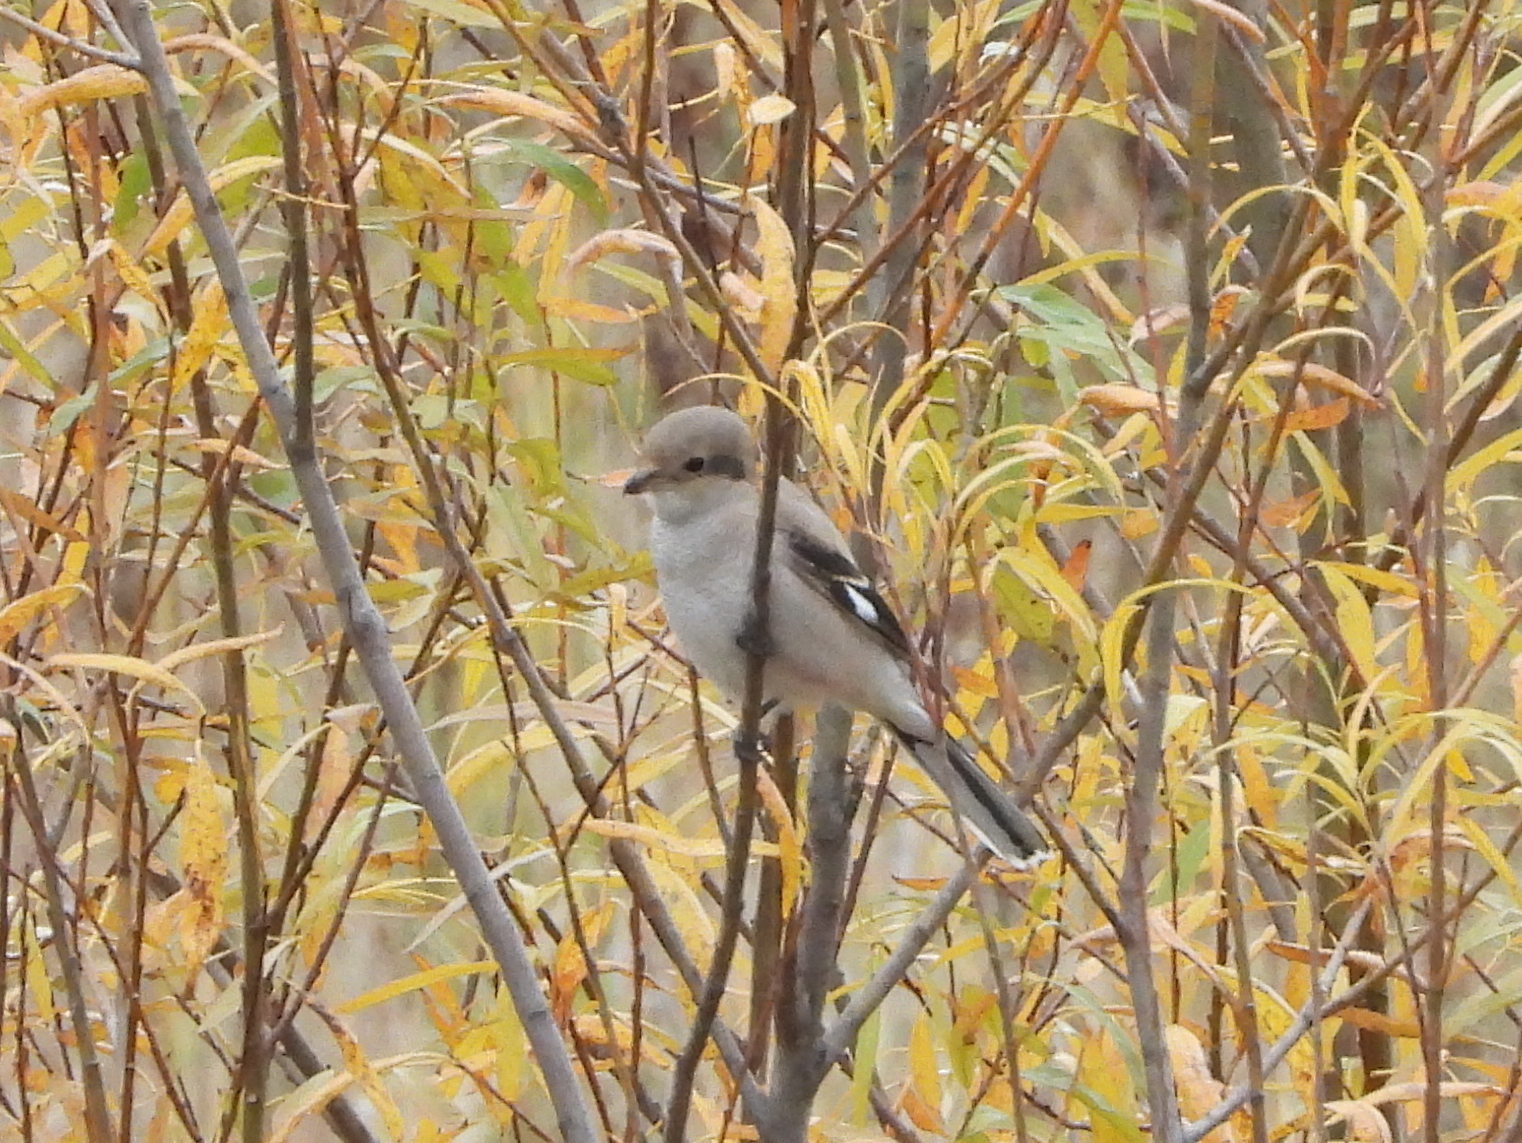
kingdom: Animalia
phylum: Chordata
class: Aves
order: Passeriformes
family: Laniidae
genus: Lanius
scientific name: Lanius excubitor
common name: Great grey shrike
